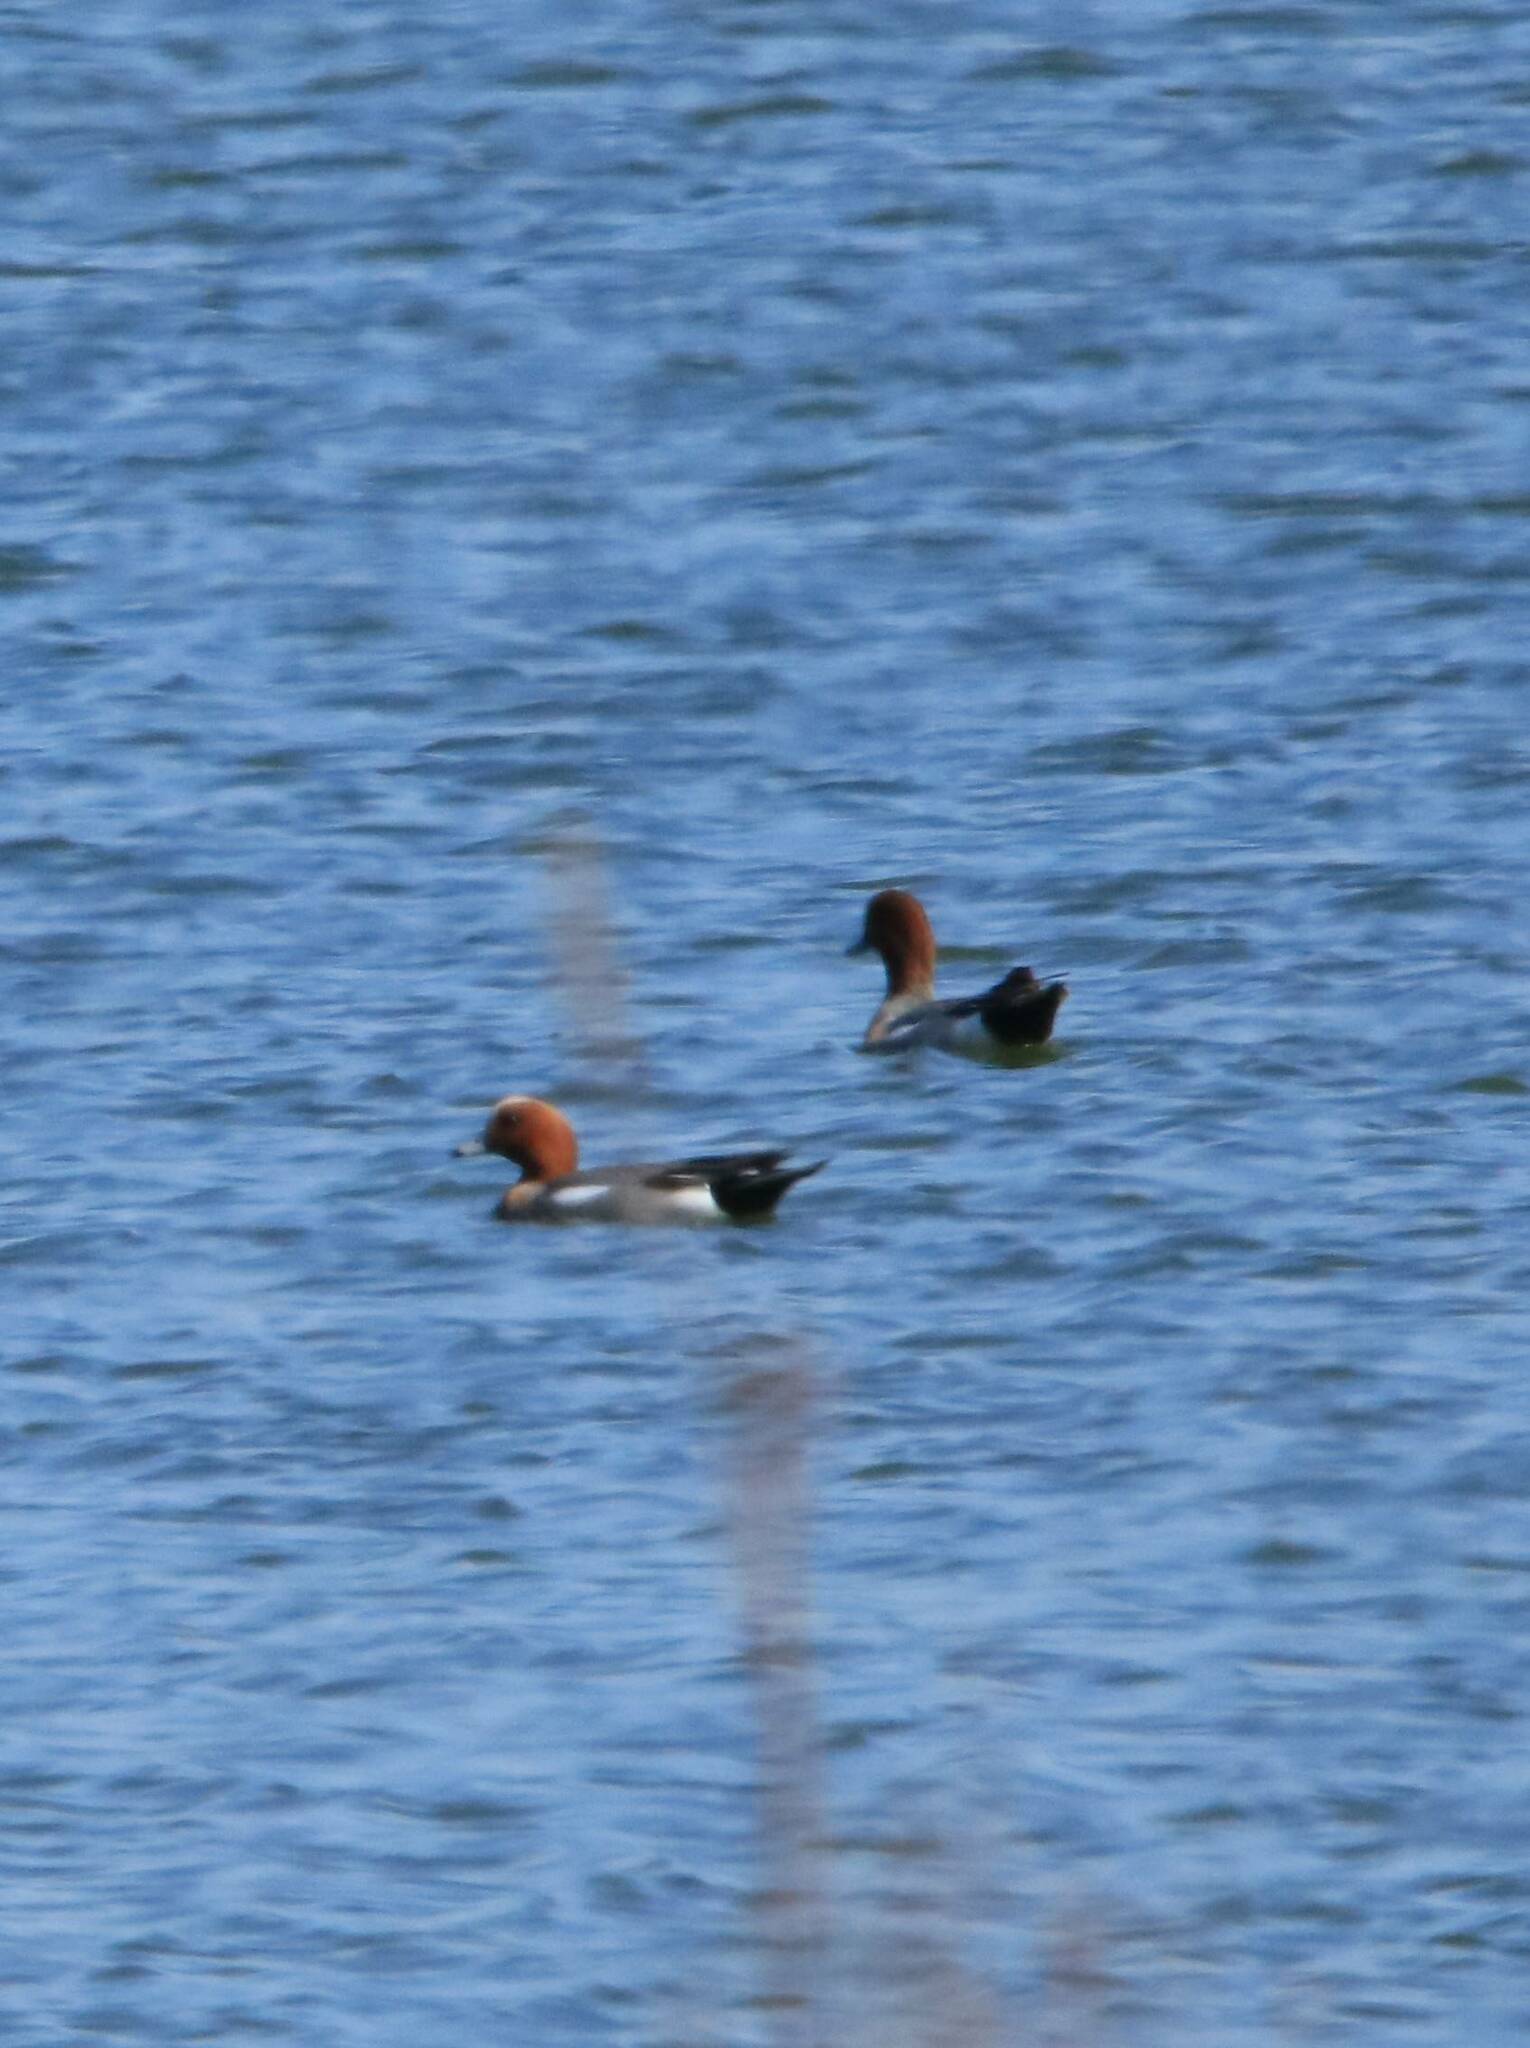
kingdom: Animalia
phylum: Chordata
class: Aves
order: Anseriformes
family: Anatidae
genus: Mareca
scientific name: Mareca penelope
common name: Eurasian wigeon
